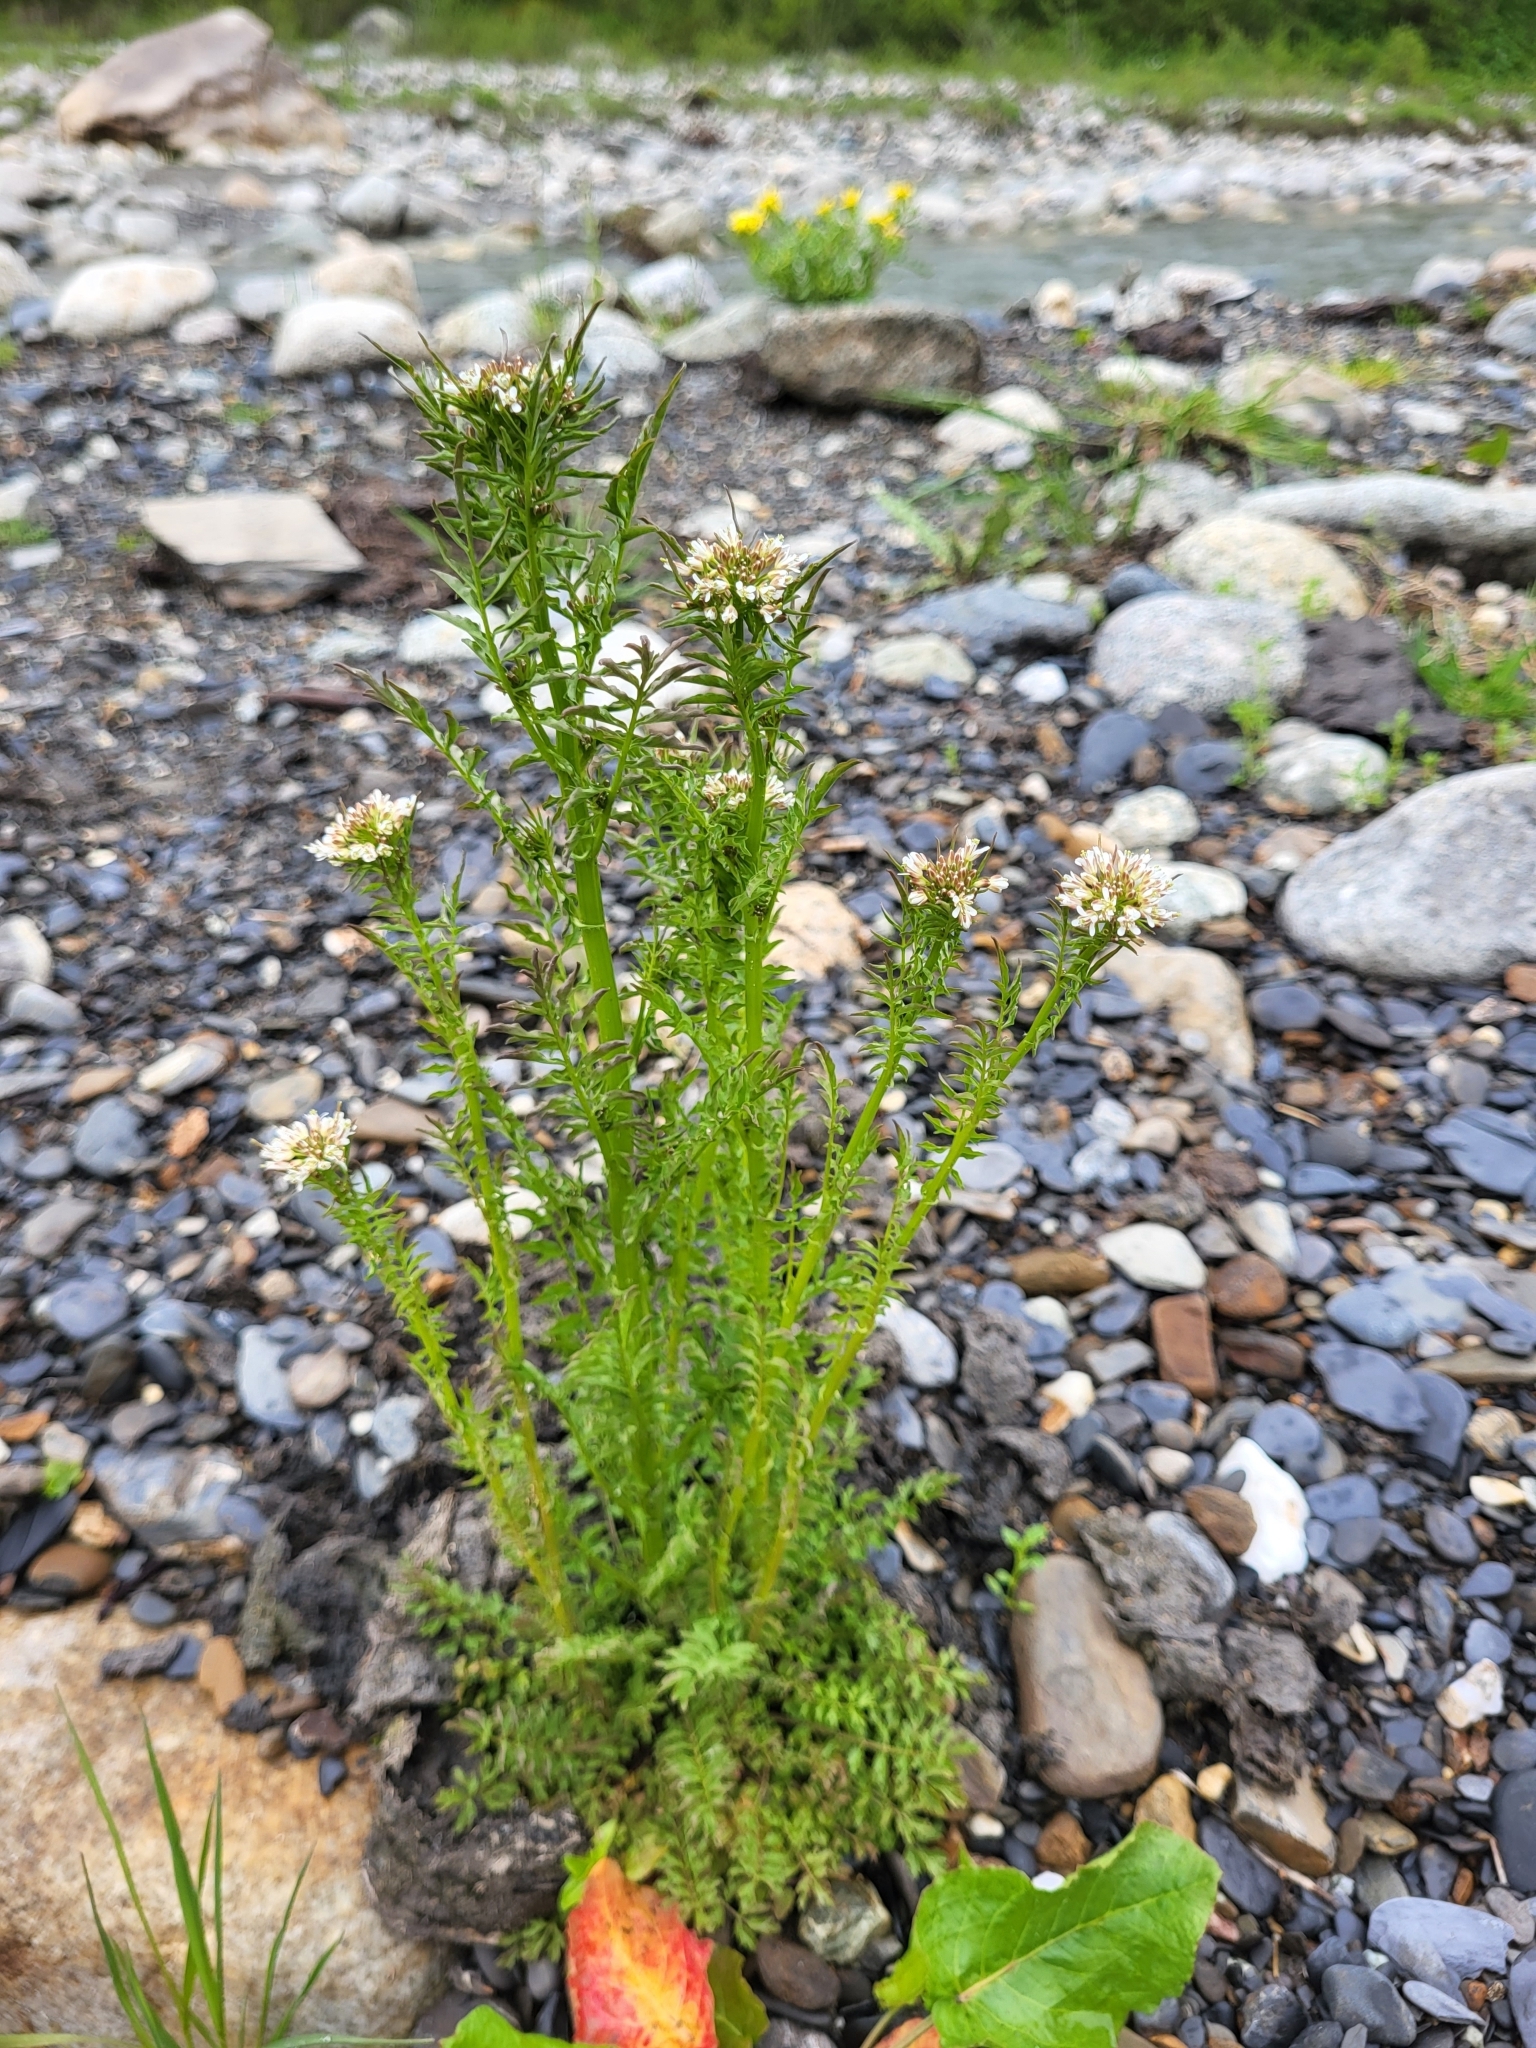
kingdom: Plantae
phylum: Tracheophyta
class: Magnoliopsida
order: Brassicales
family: Brassicaceae
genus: Cardamine
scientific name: Cardamine impatiens
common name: Narrow-leaved bitter-cress
